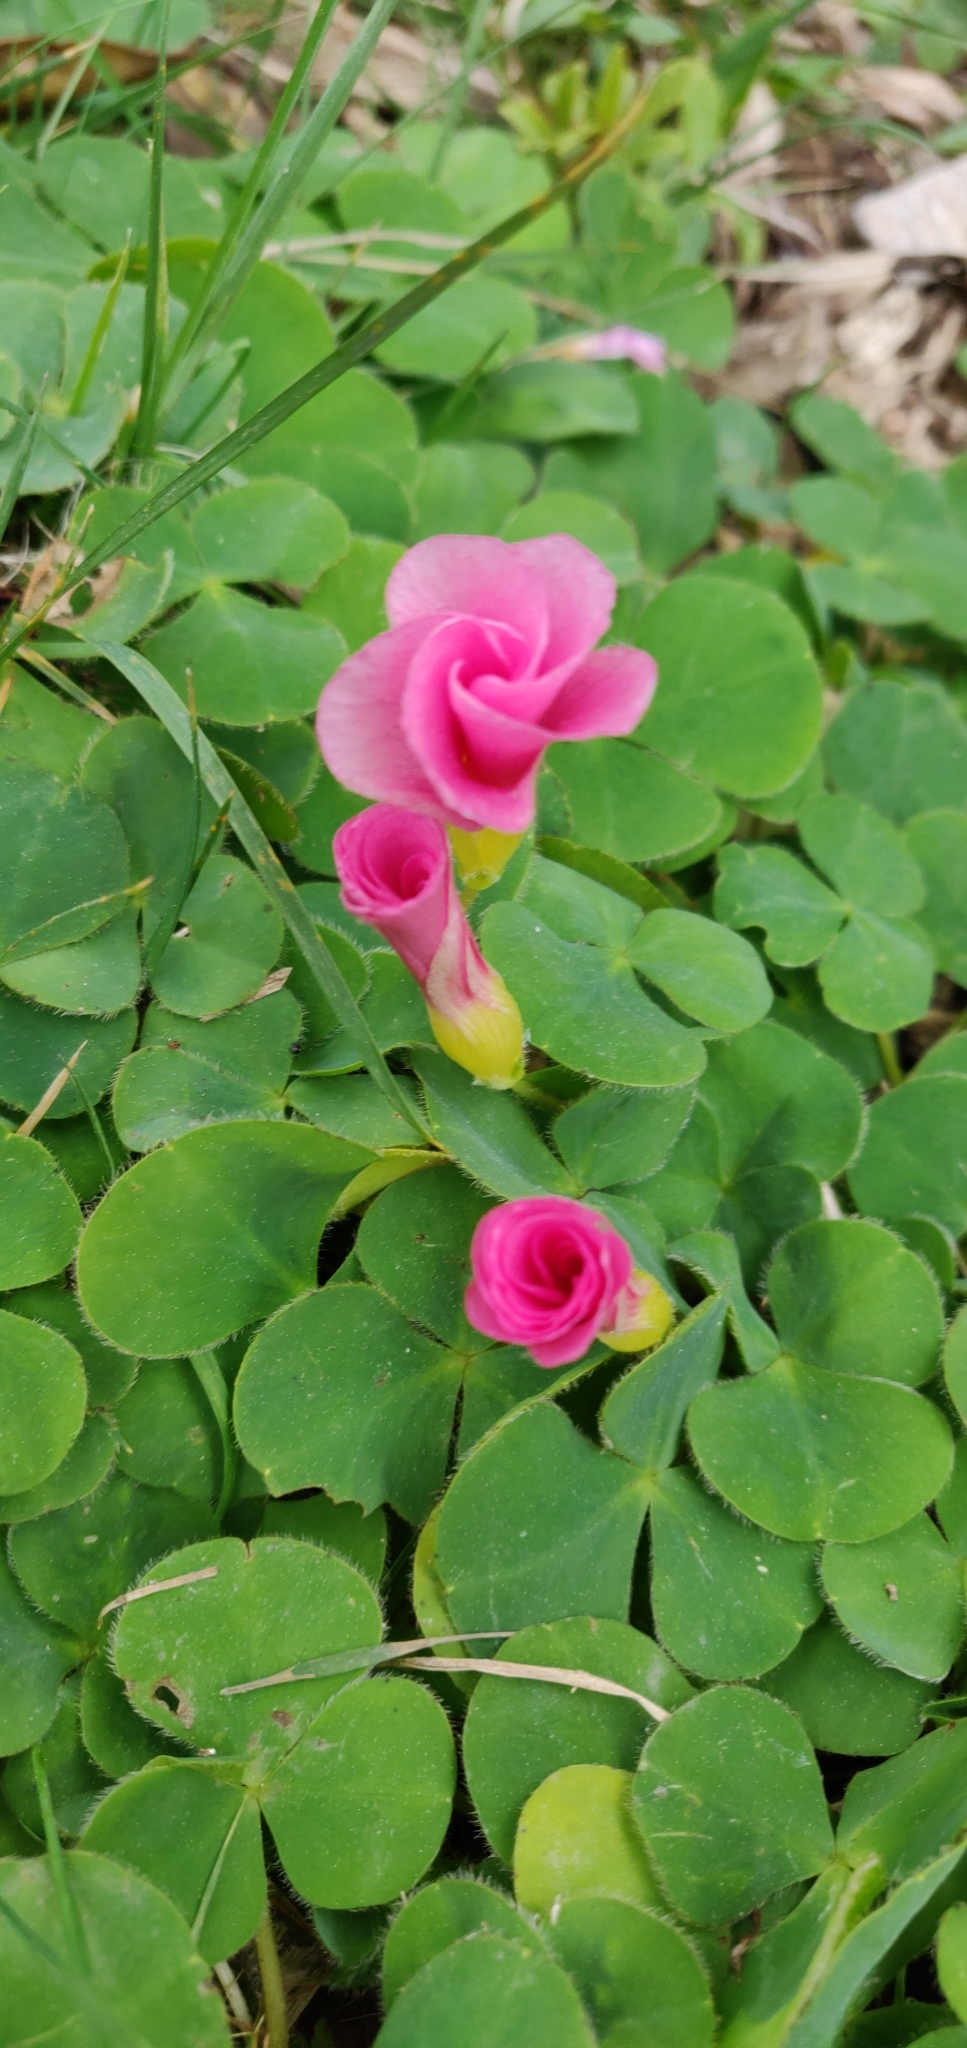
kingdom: Plantae
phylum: Tracheophyta
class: Magnoliopsida
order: Oxalidales
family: Oxalidaceae
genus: Oxalis
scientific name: Oxalis purpurea
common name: Purple woodsorrel
